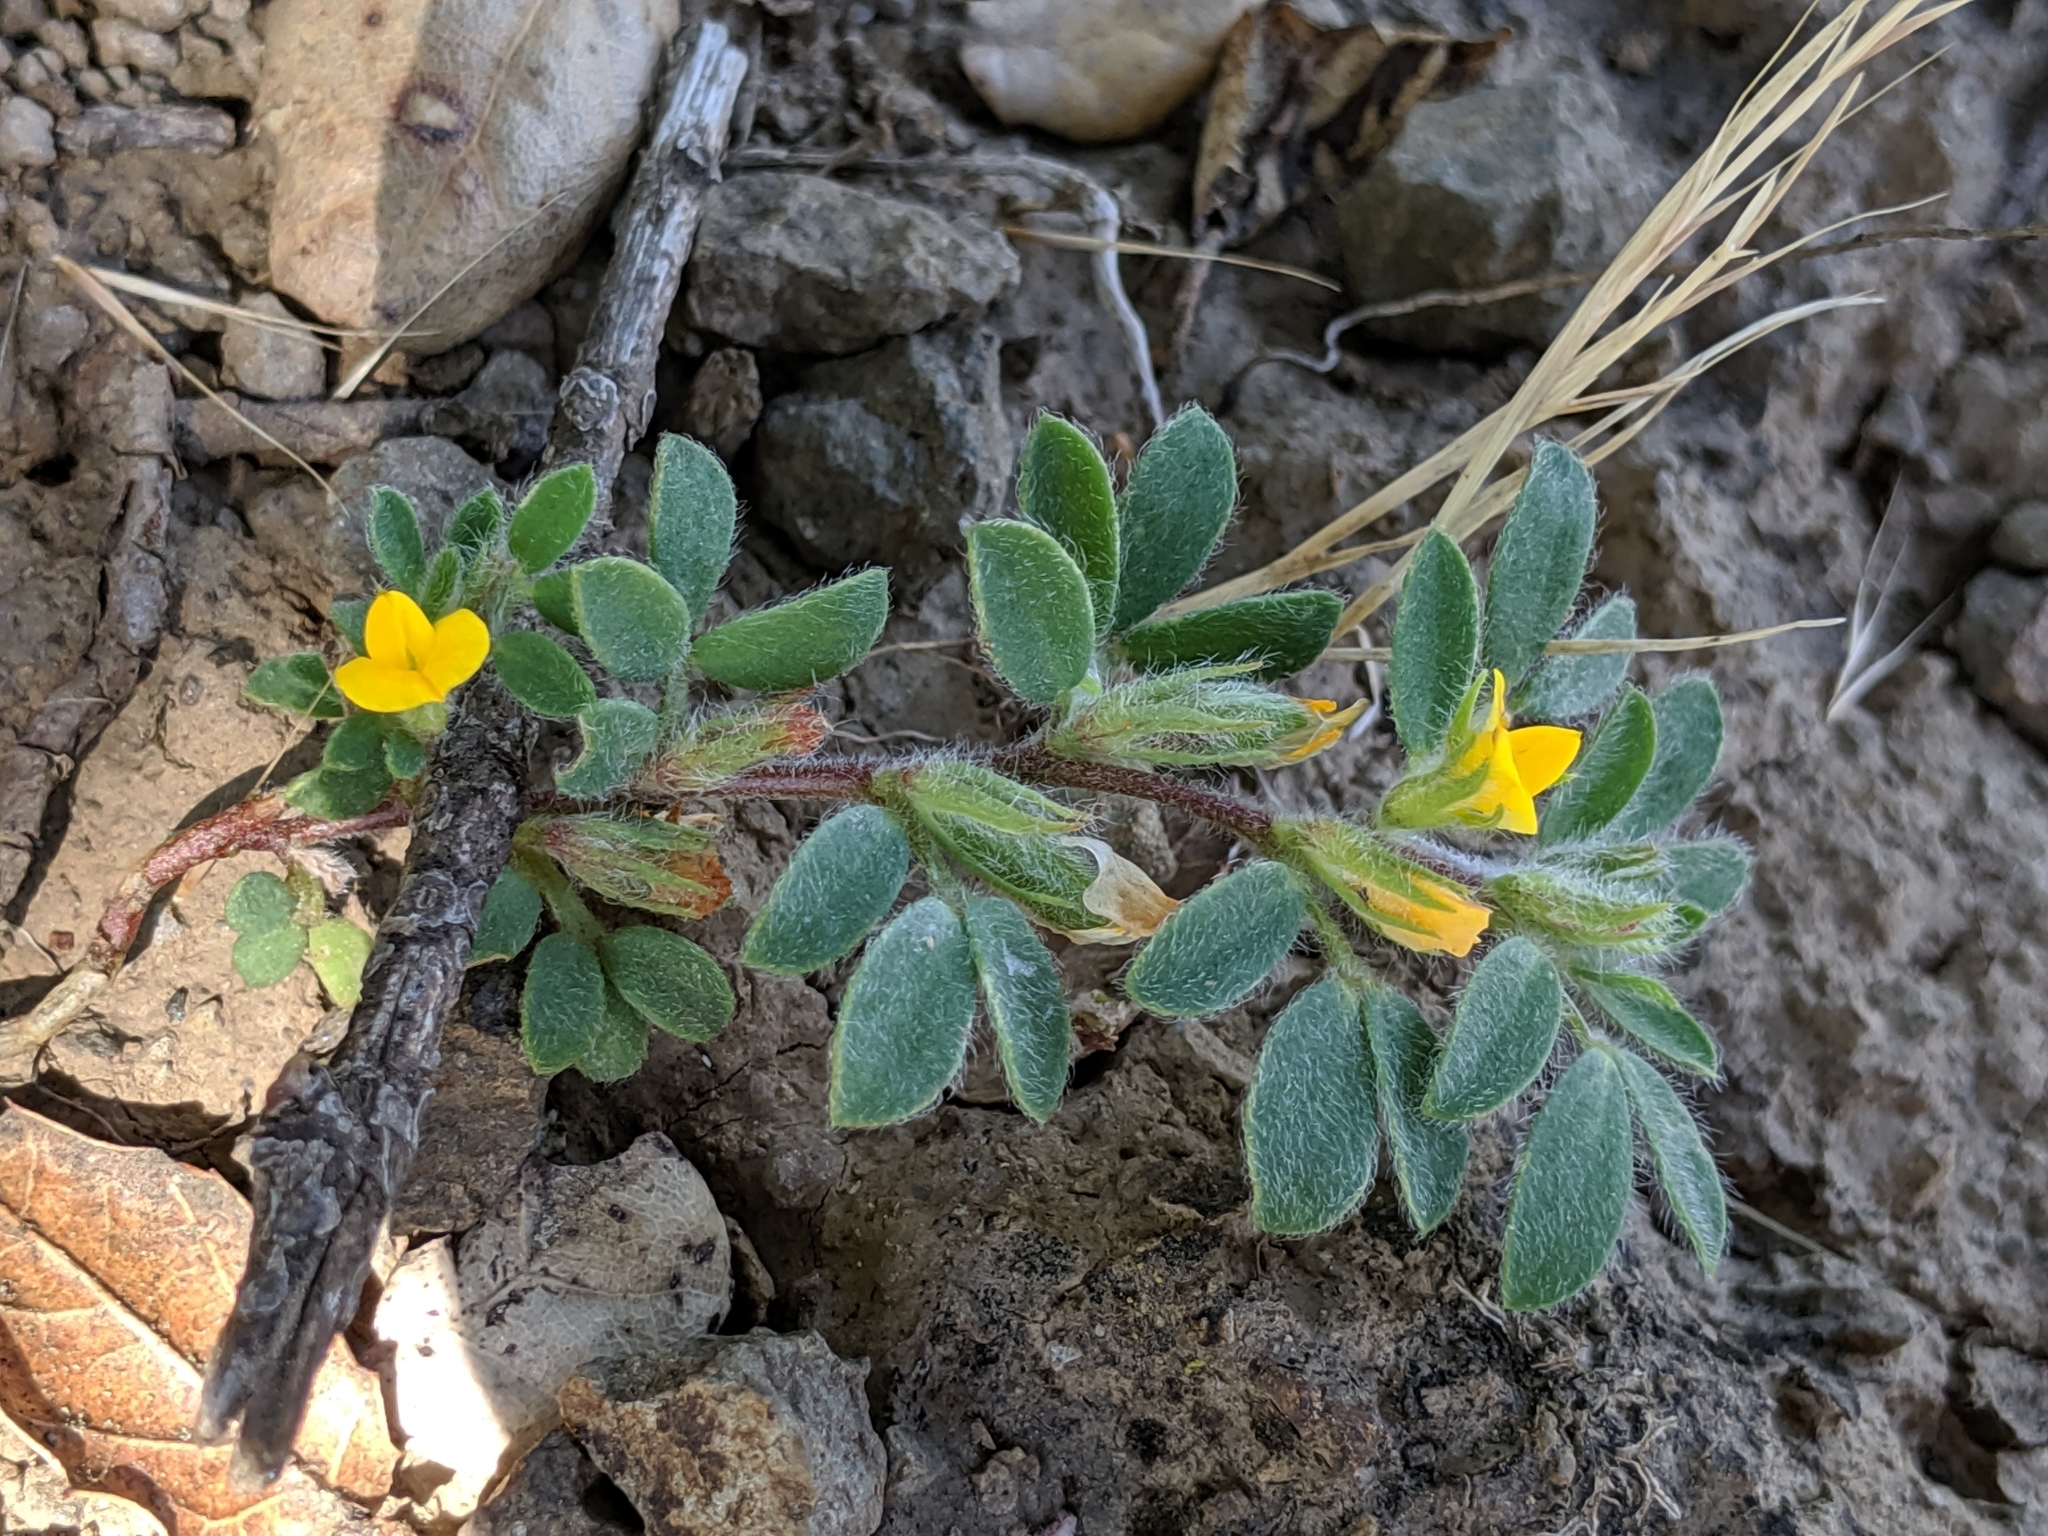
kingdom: Plantae
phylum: Tracheophyta
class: Magnoliopsida
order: Fabales
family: Fabaceae
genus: Acmispon
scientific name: Acmispon brachycarpus
